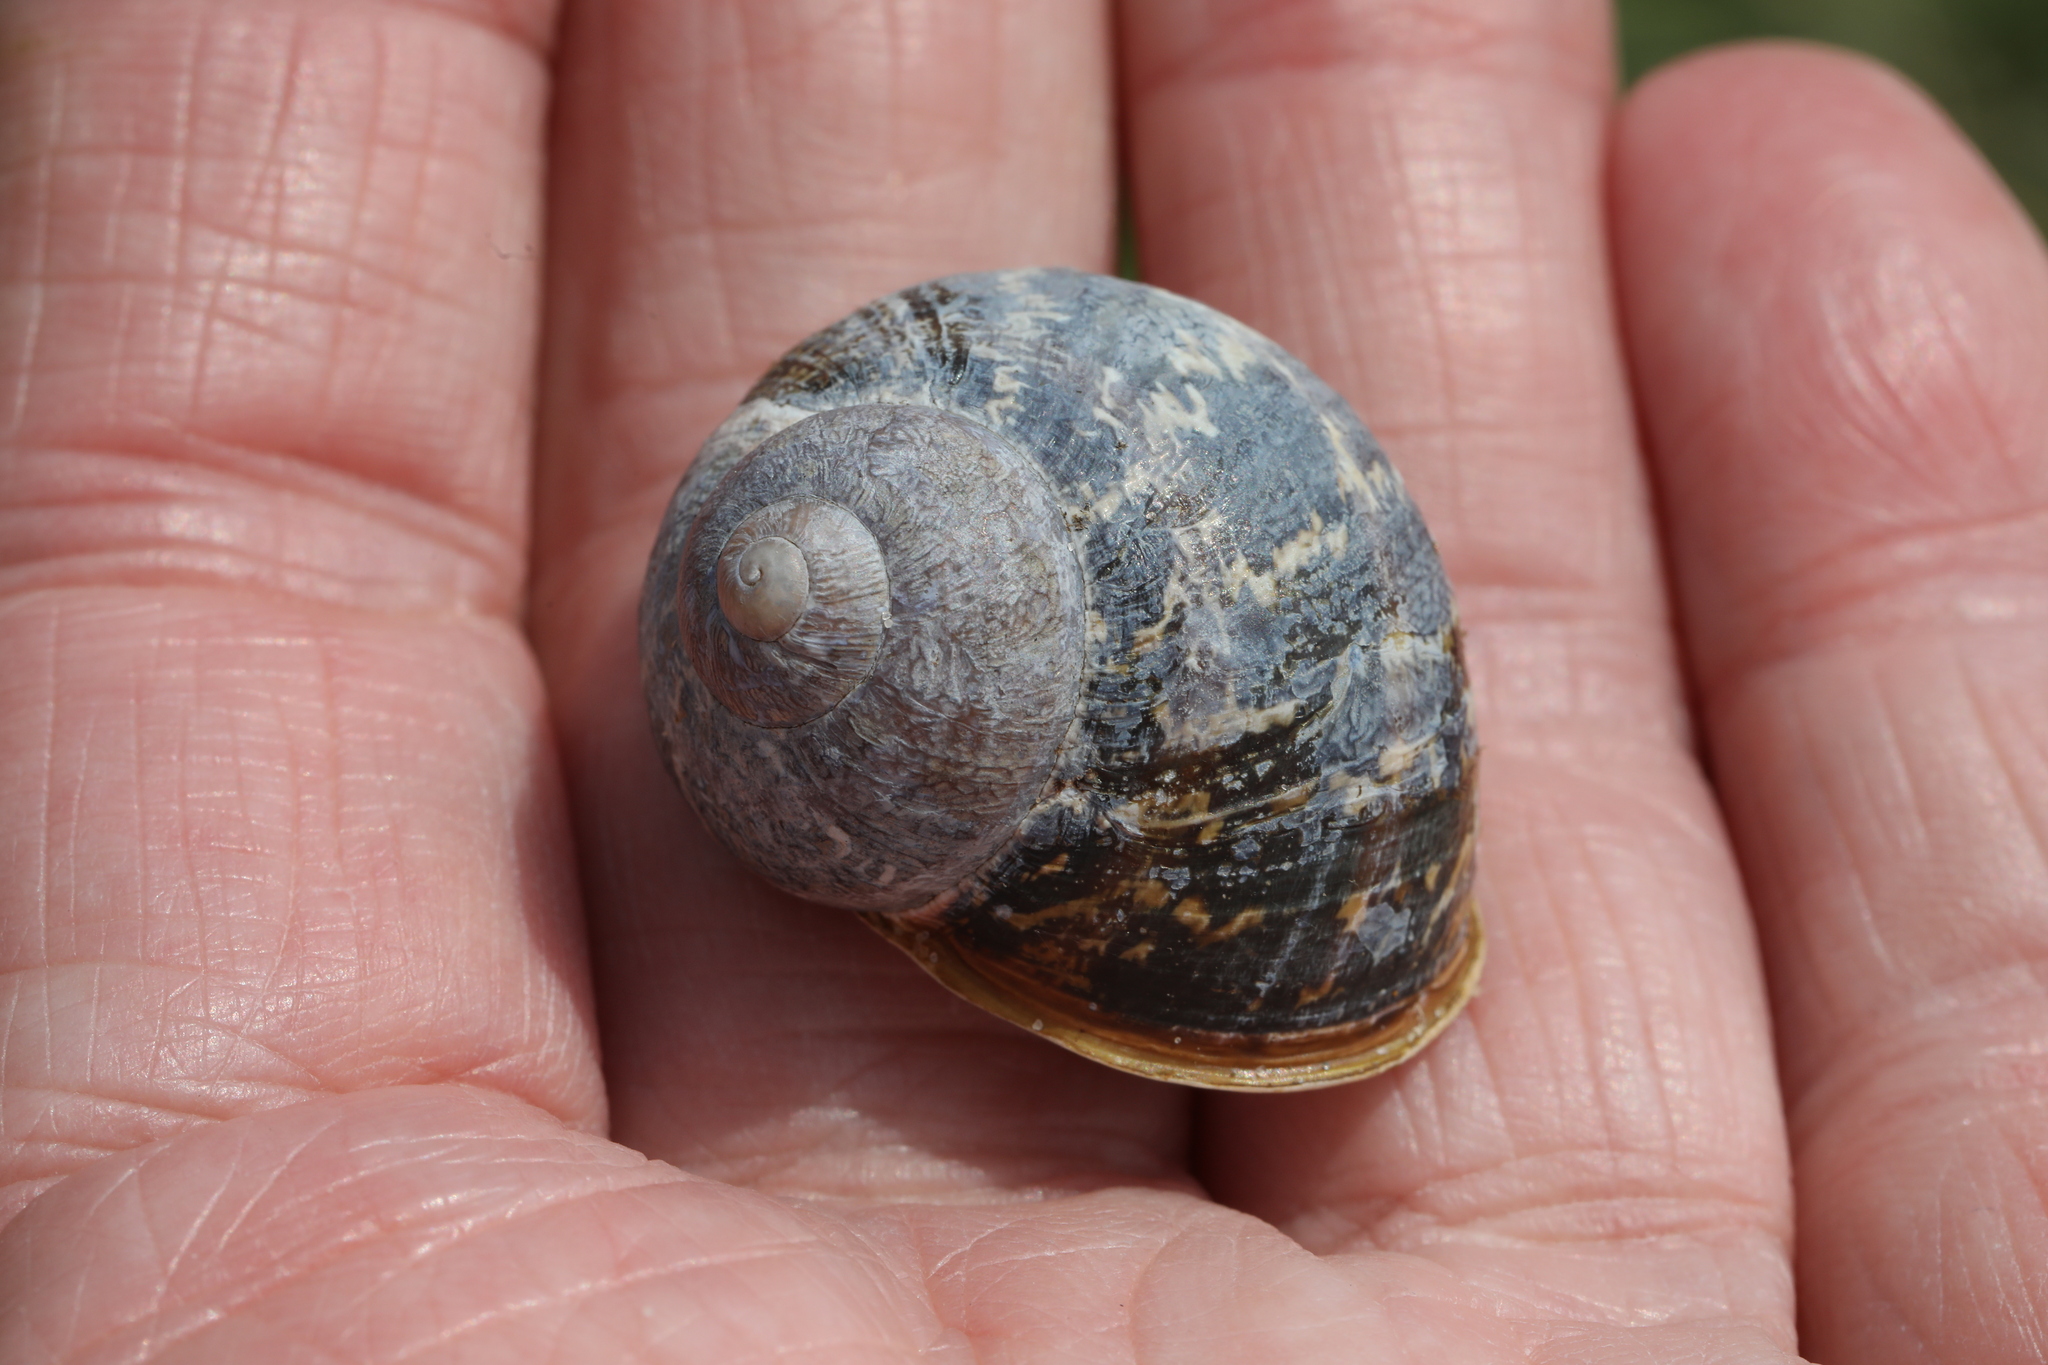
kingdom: Animalia
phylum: Mollusca
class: Gastropoda
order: Stylommatophora
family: Helicidae
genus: Cornu
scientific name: Cornu aspersum
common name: Brown garden snail
